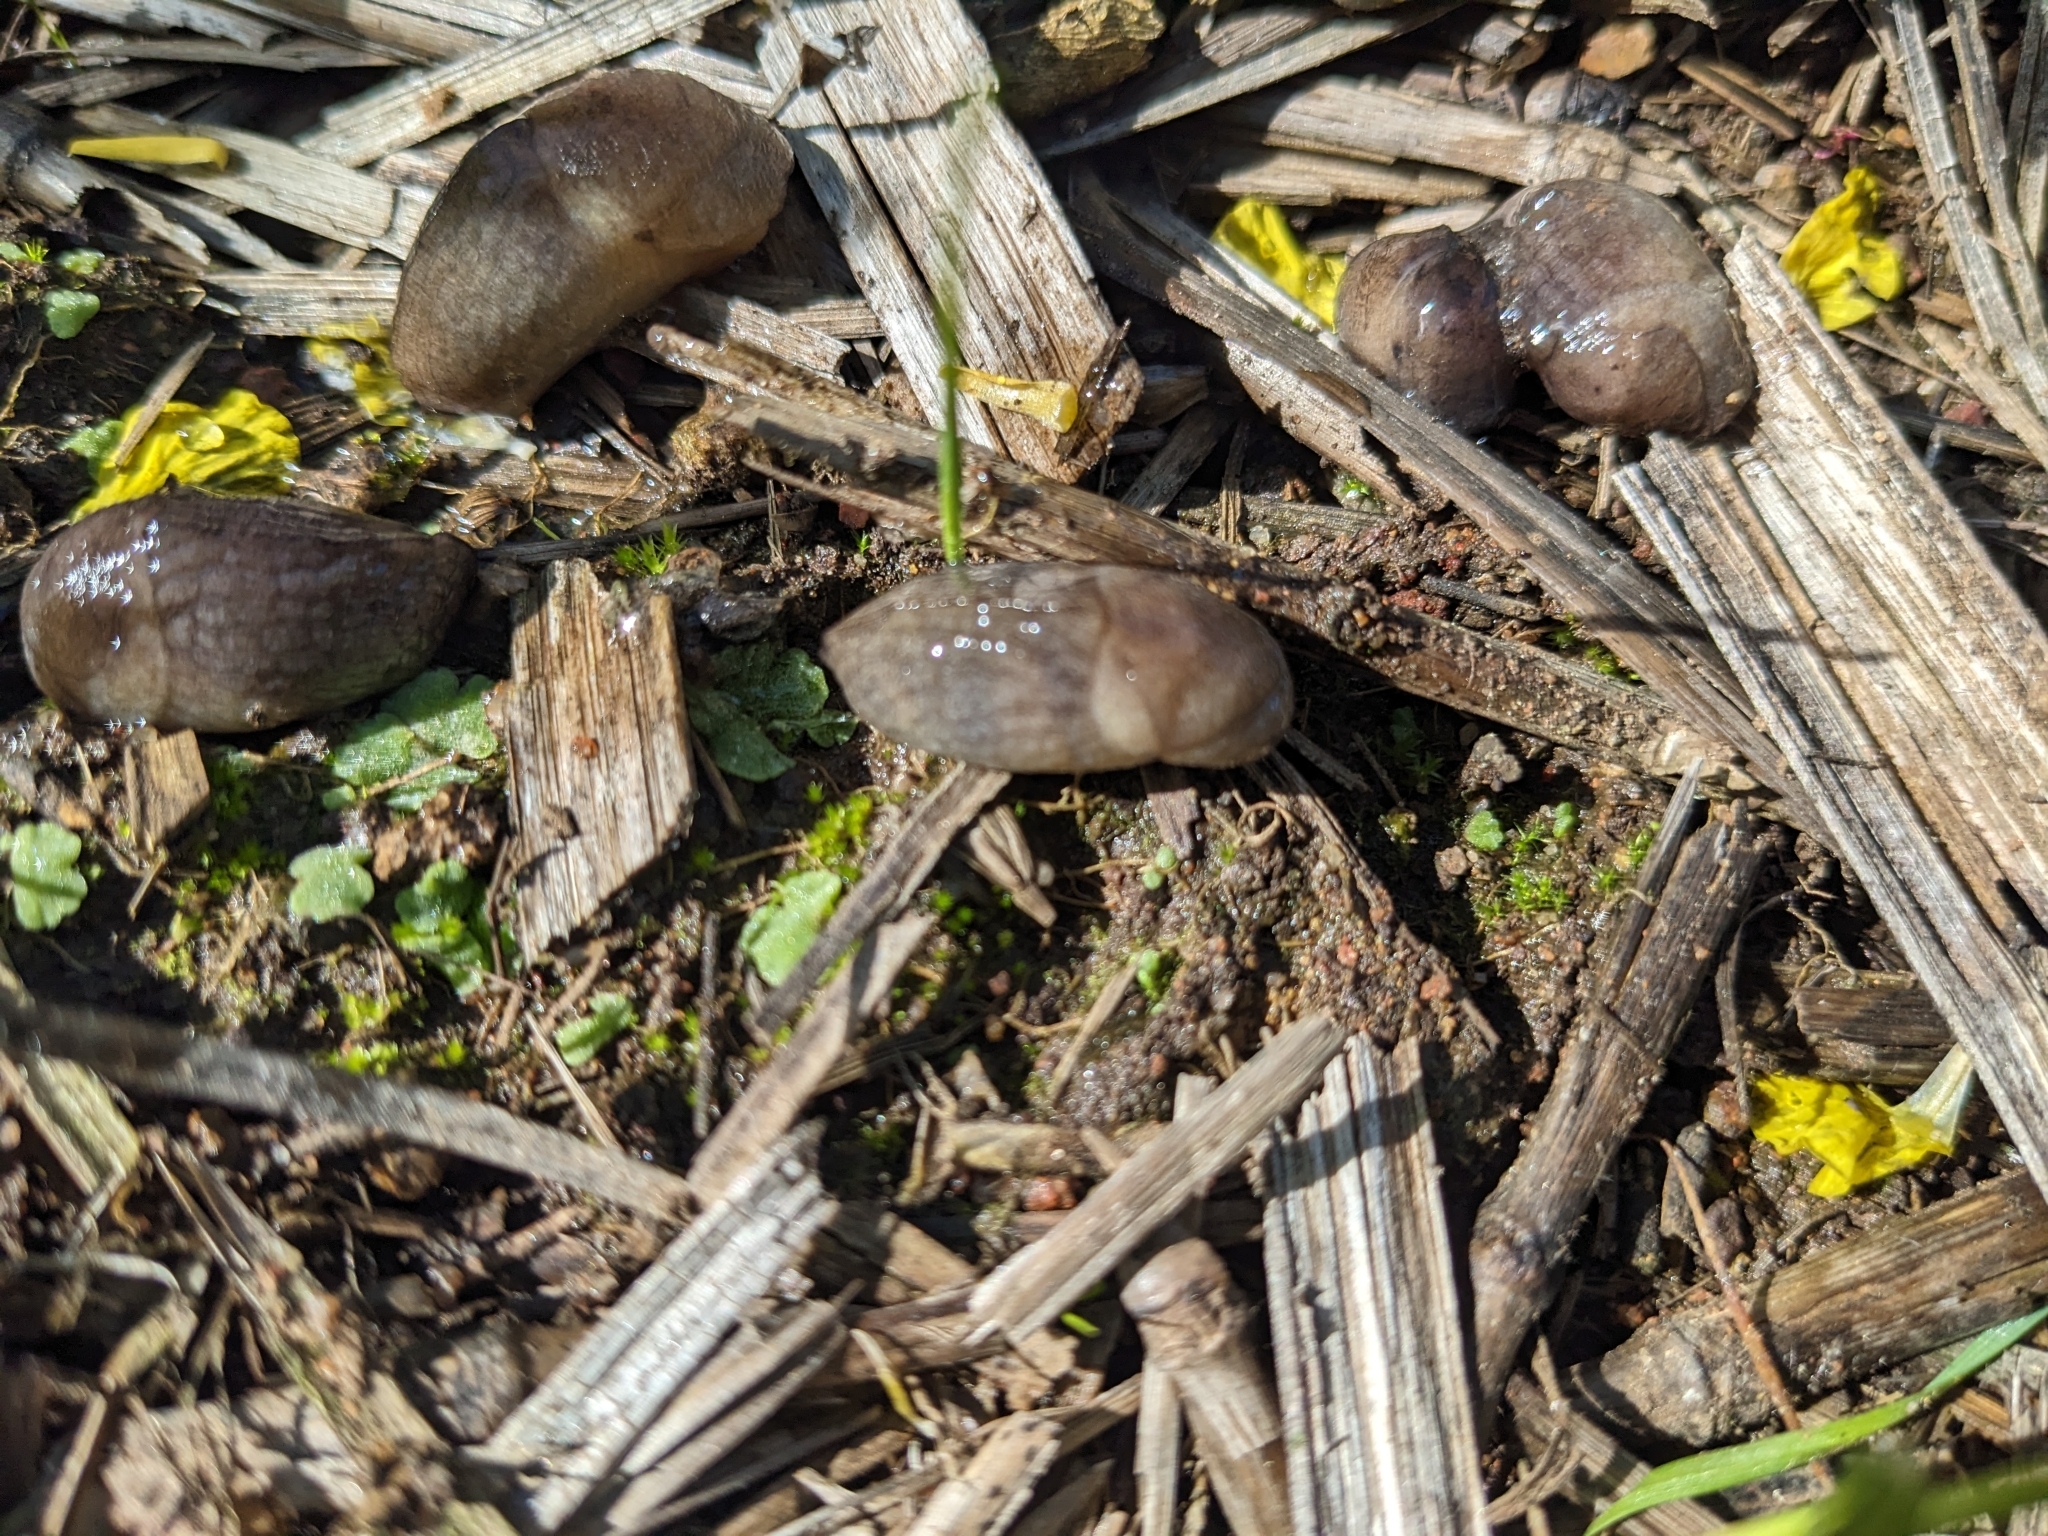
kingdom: Animalia
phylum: Mollusca
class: Gastropoda
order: Stylommatophora
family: Milacidae
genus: Milax
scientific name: Milax gagates
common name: Greenhouse slug
